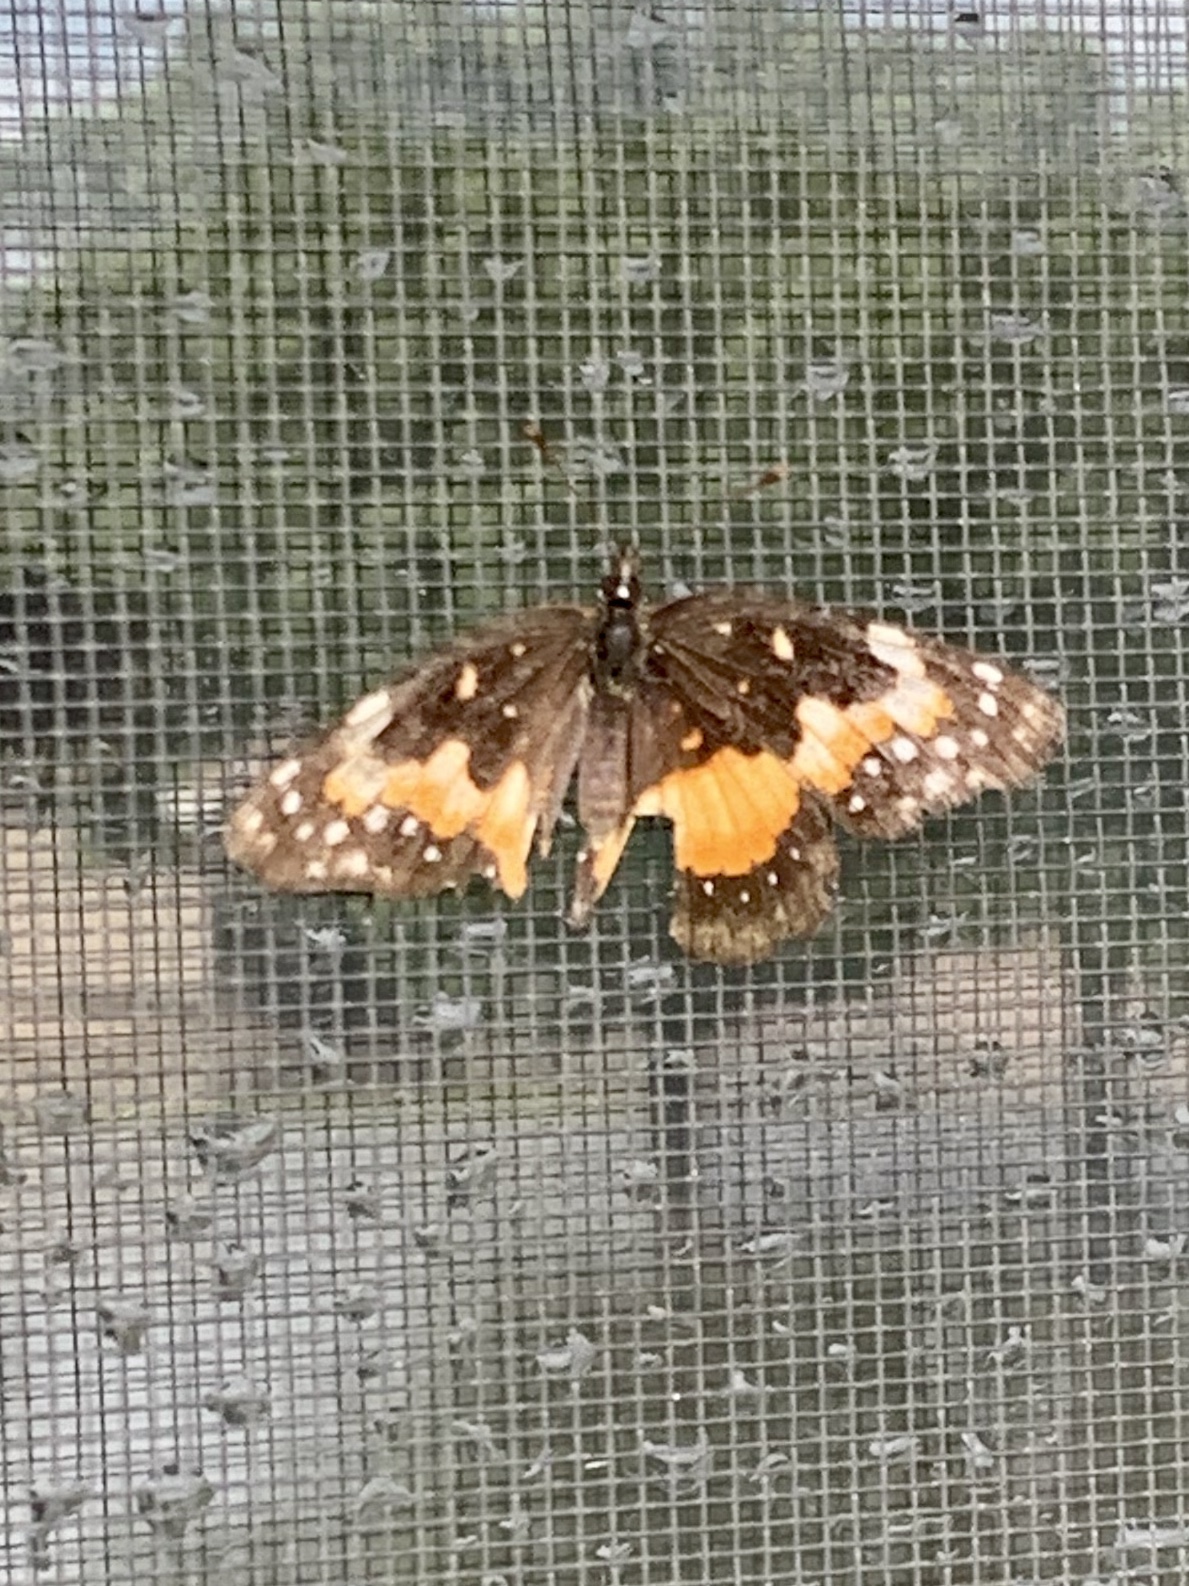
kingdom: Animalia
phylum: Arthropoda
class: Insecta
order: Lepidoptera
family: Nymphalidae
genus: Chlosyne
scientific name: Chlosyne lacinia
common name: Bordered patch
